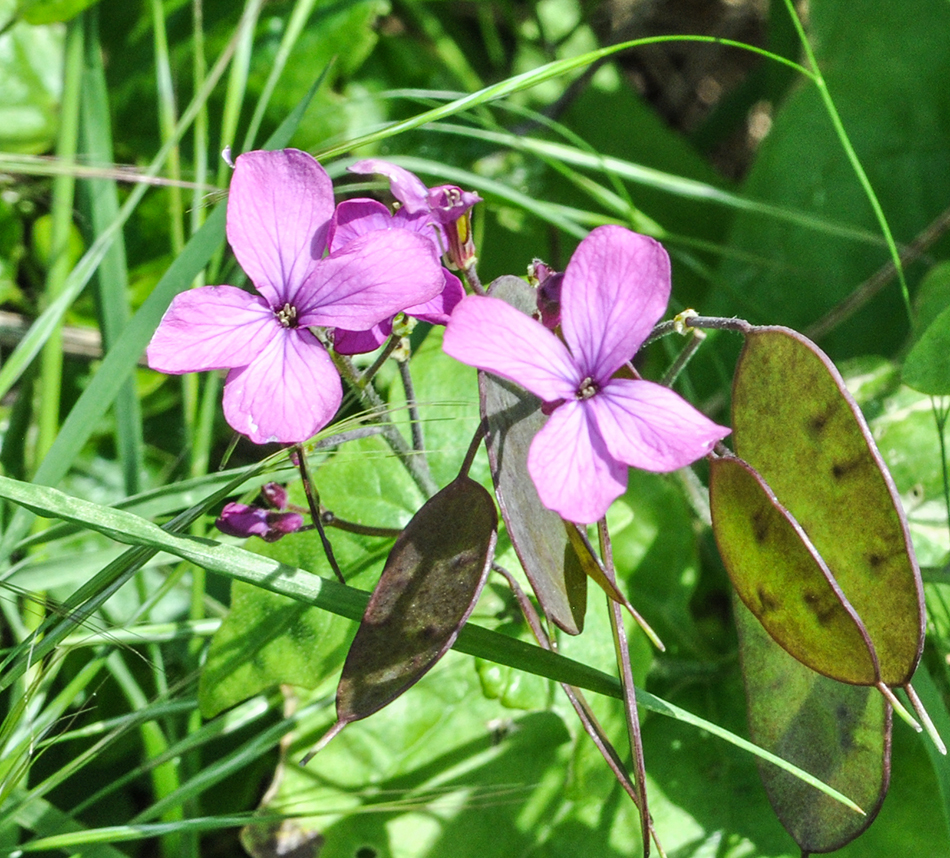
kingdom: Plantae
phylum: Tracheophyta
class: Magnoliopsida
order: Brassicales
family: Brassicaceae
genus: Lunaria
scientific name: Lunaria annua
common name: Honesty
